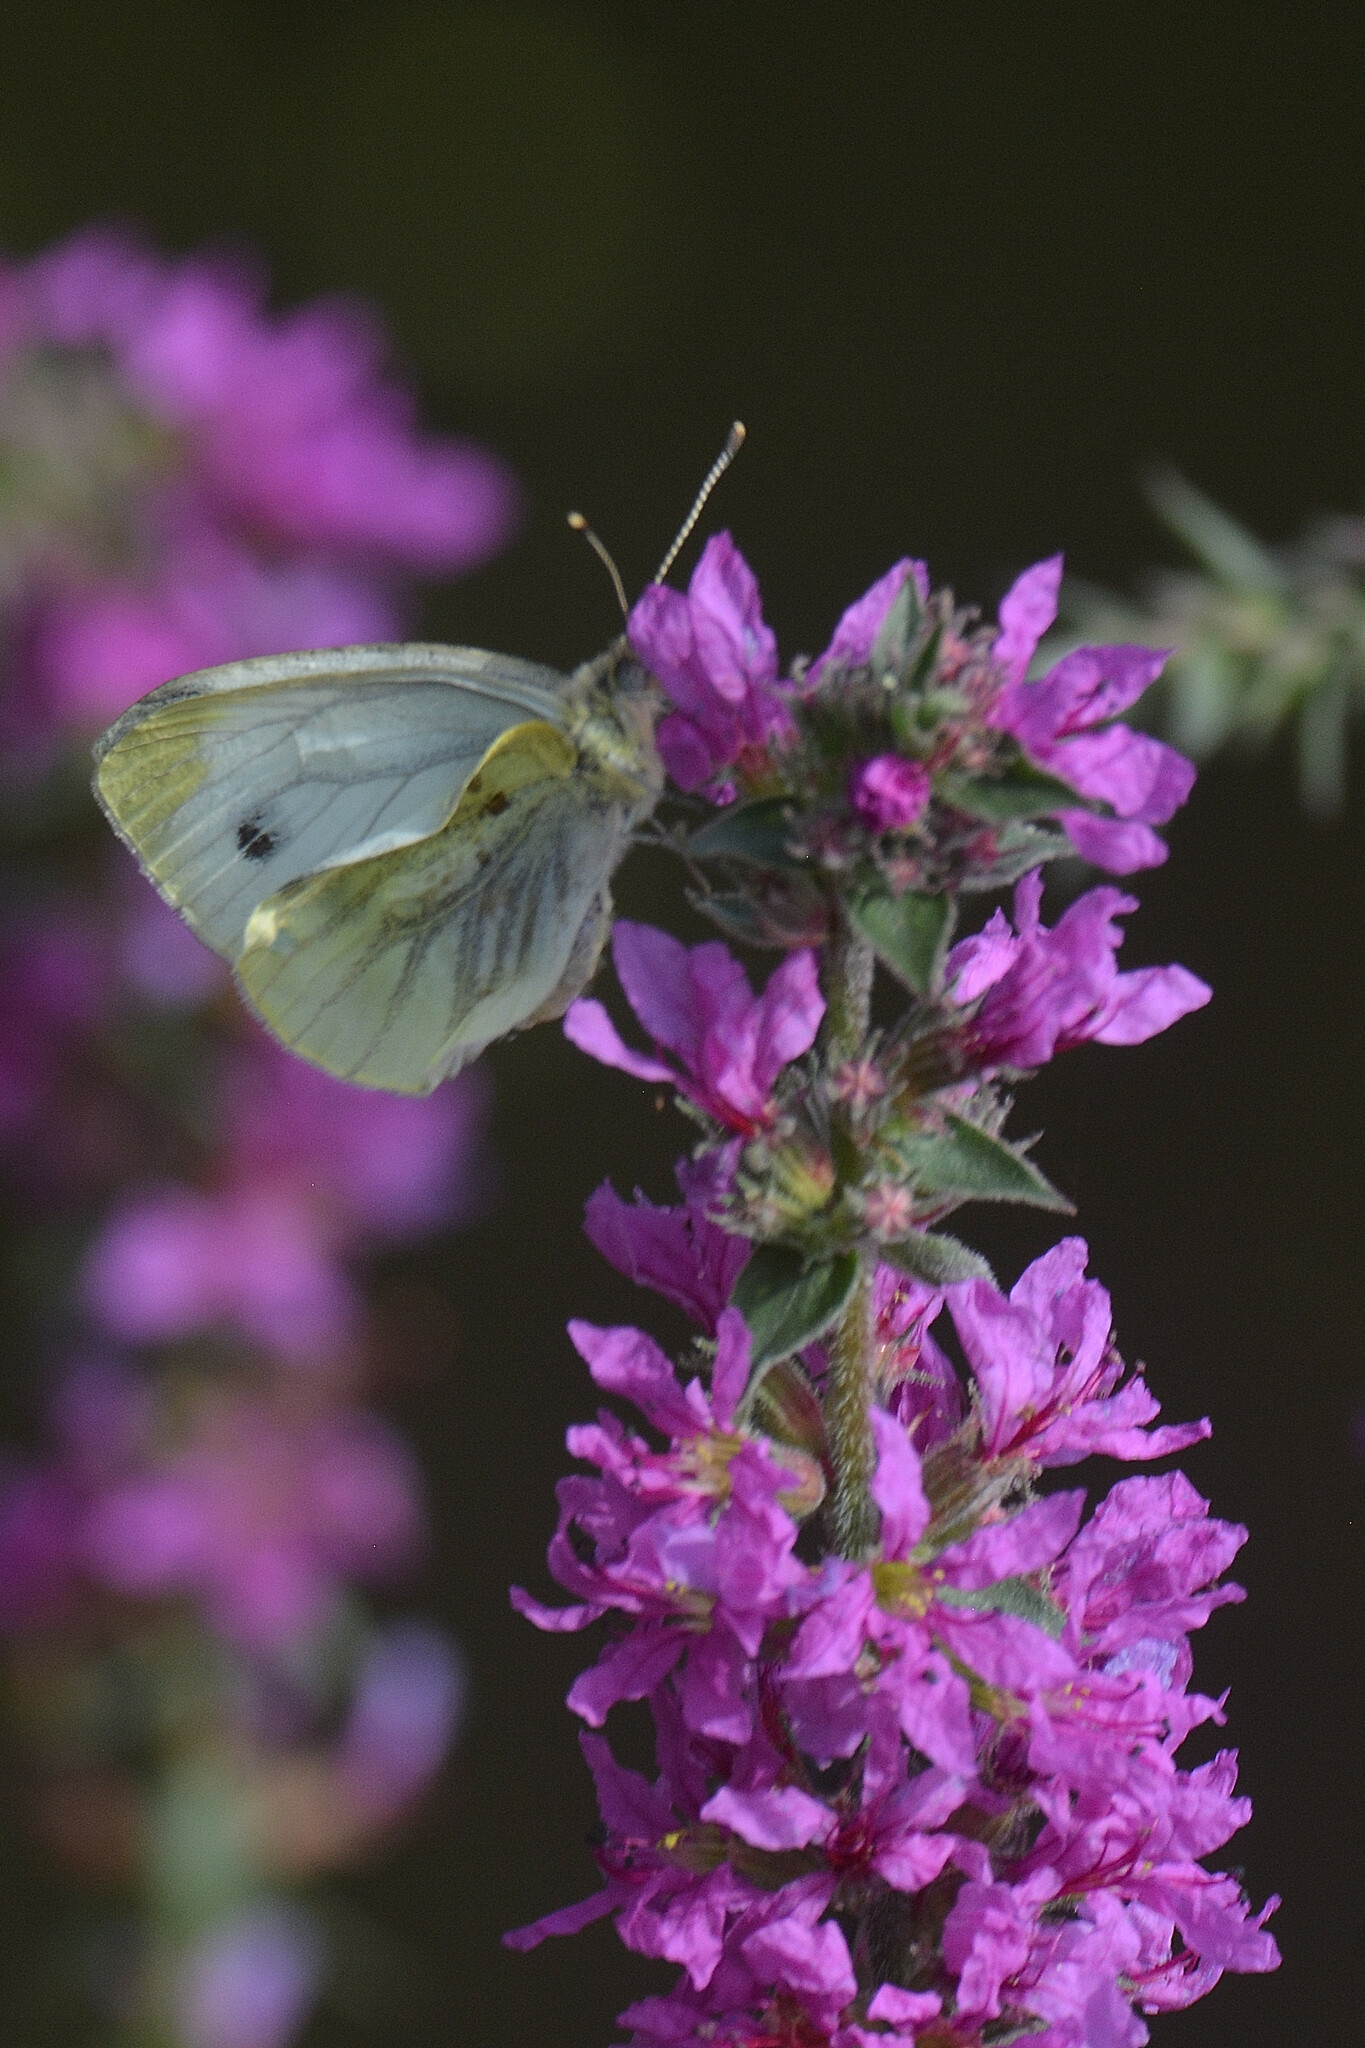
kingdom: Animalia
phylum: Arthropoda
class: Insecta
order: Lepidoptera
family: Pieridae
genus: Pieris
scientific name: Pieris napi
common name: Green-veined white
